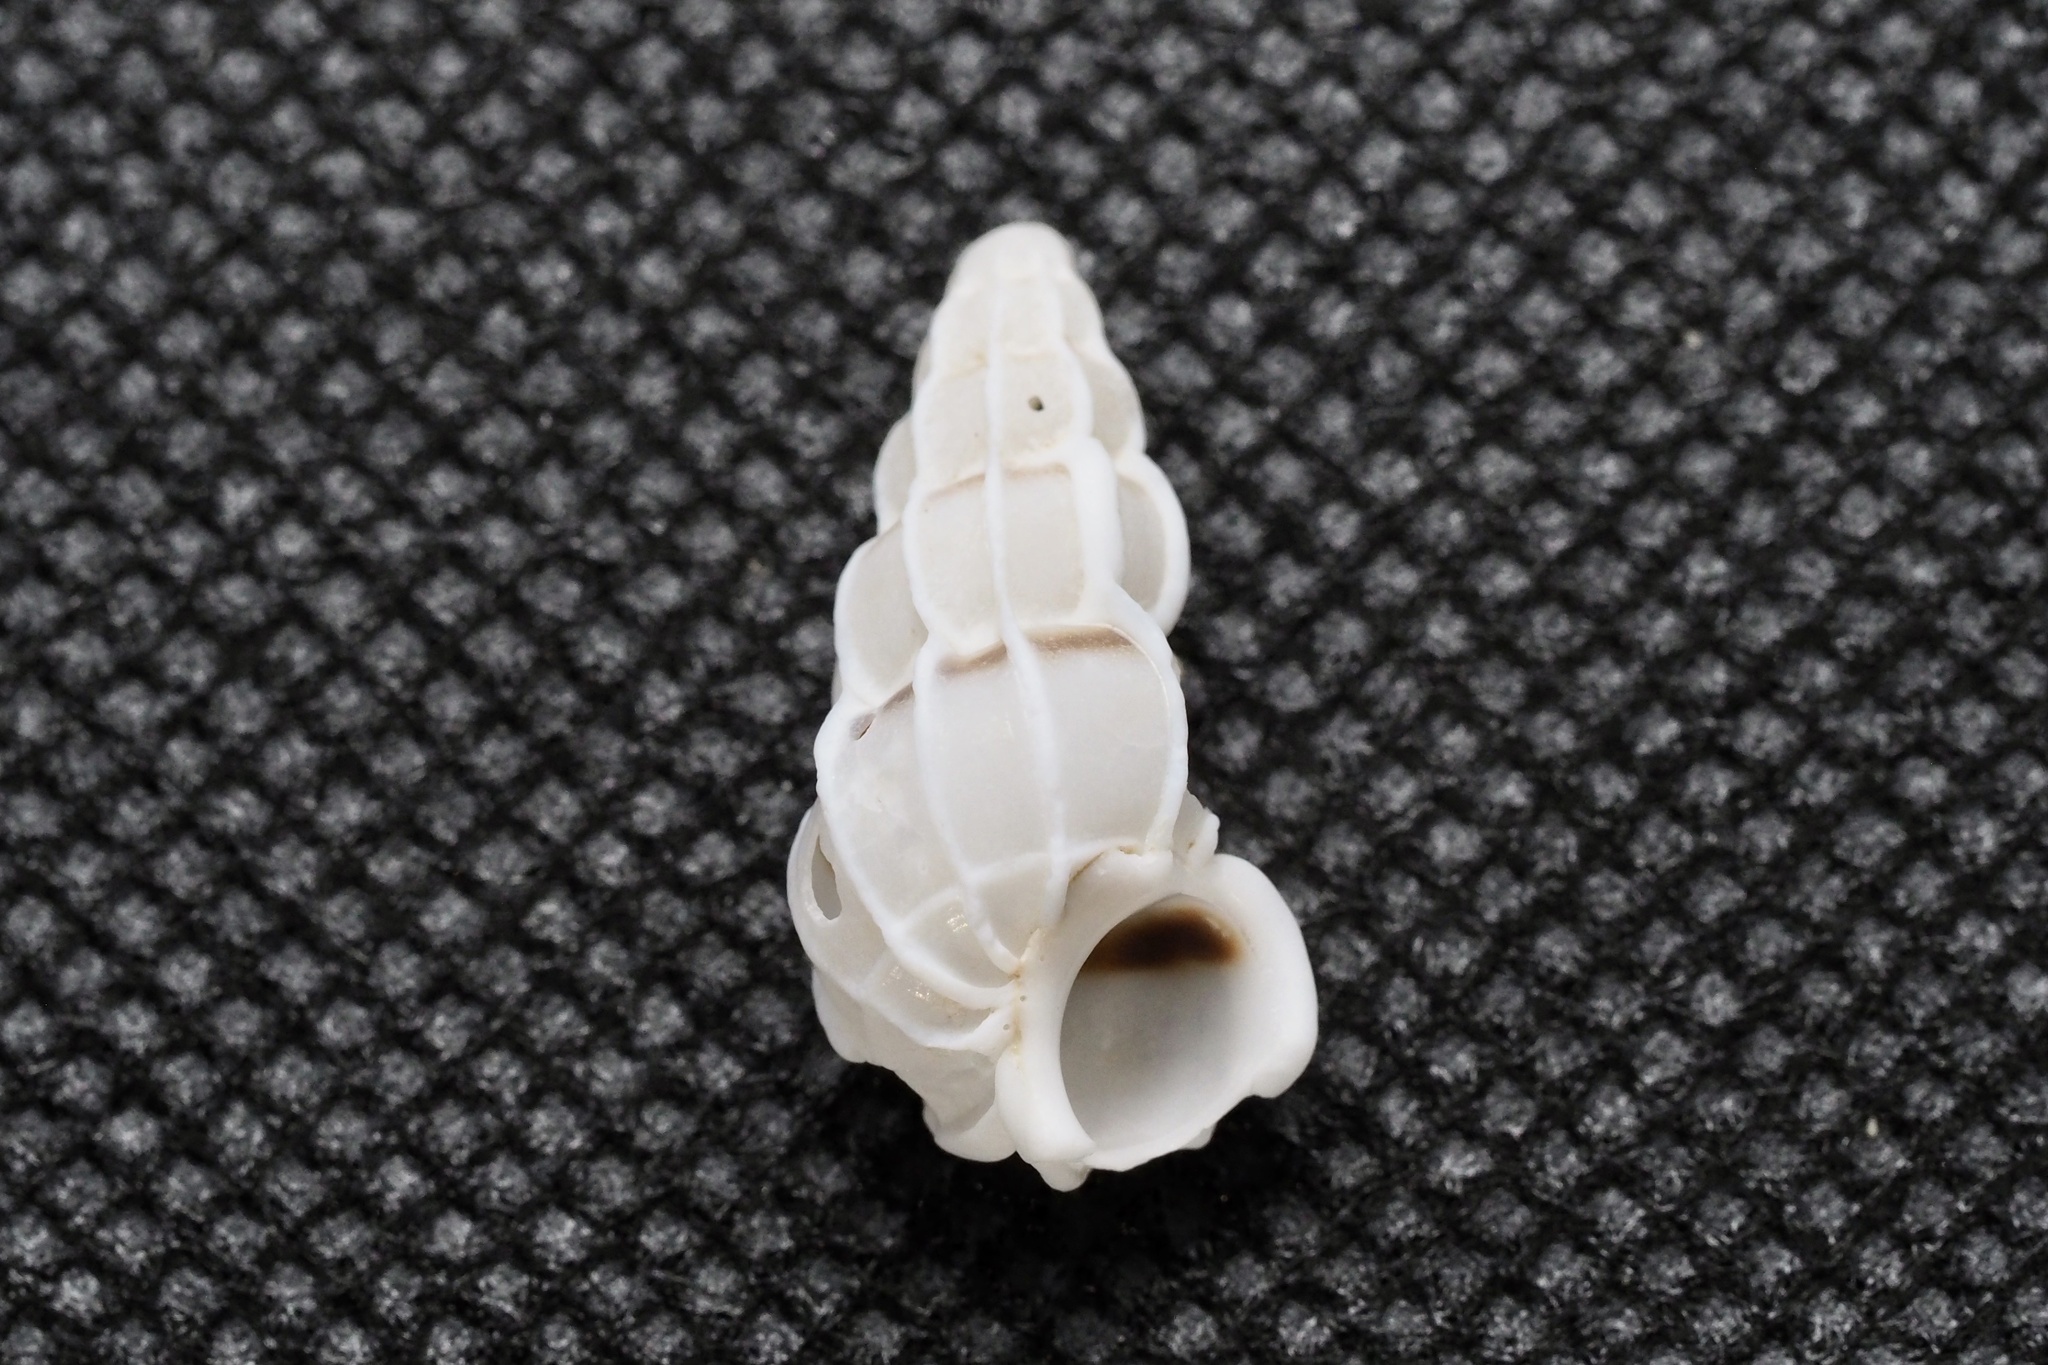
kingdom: Animalia
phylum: Mollusca
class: Gastropoda
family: Epitoniidae
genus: Gyroscala
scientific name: Gyroscala commutata
